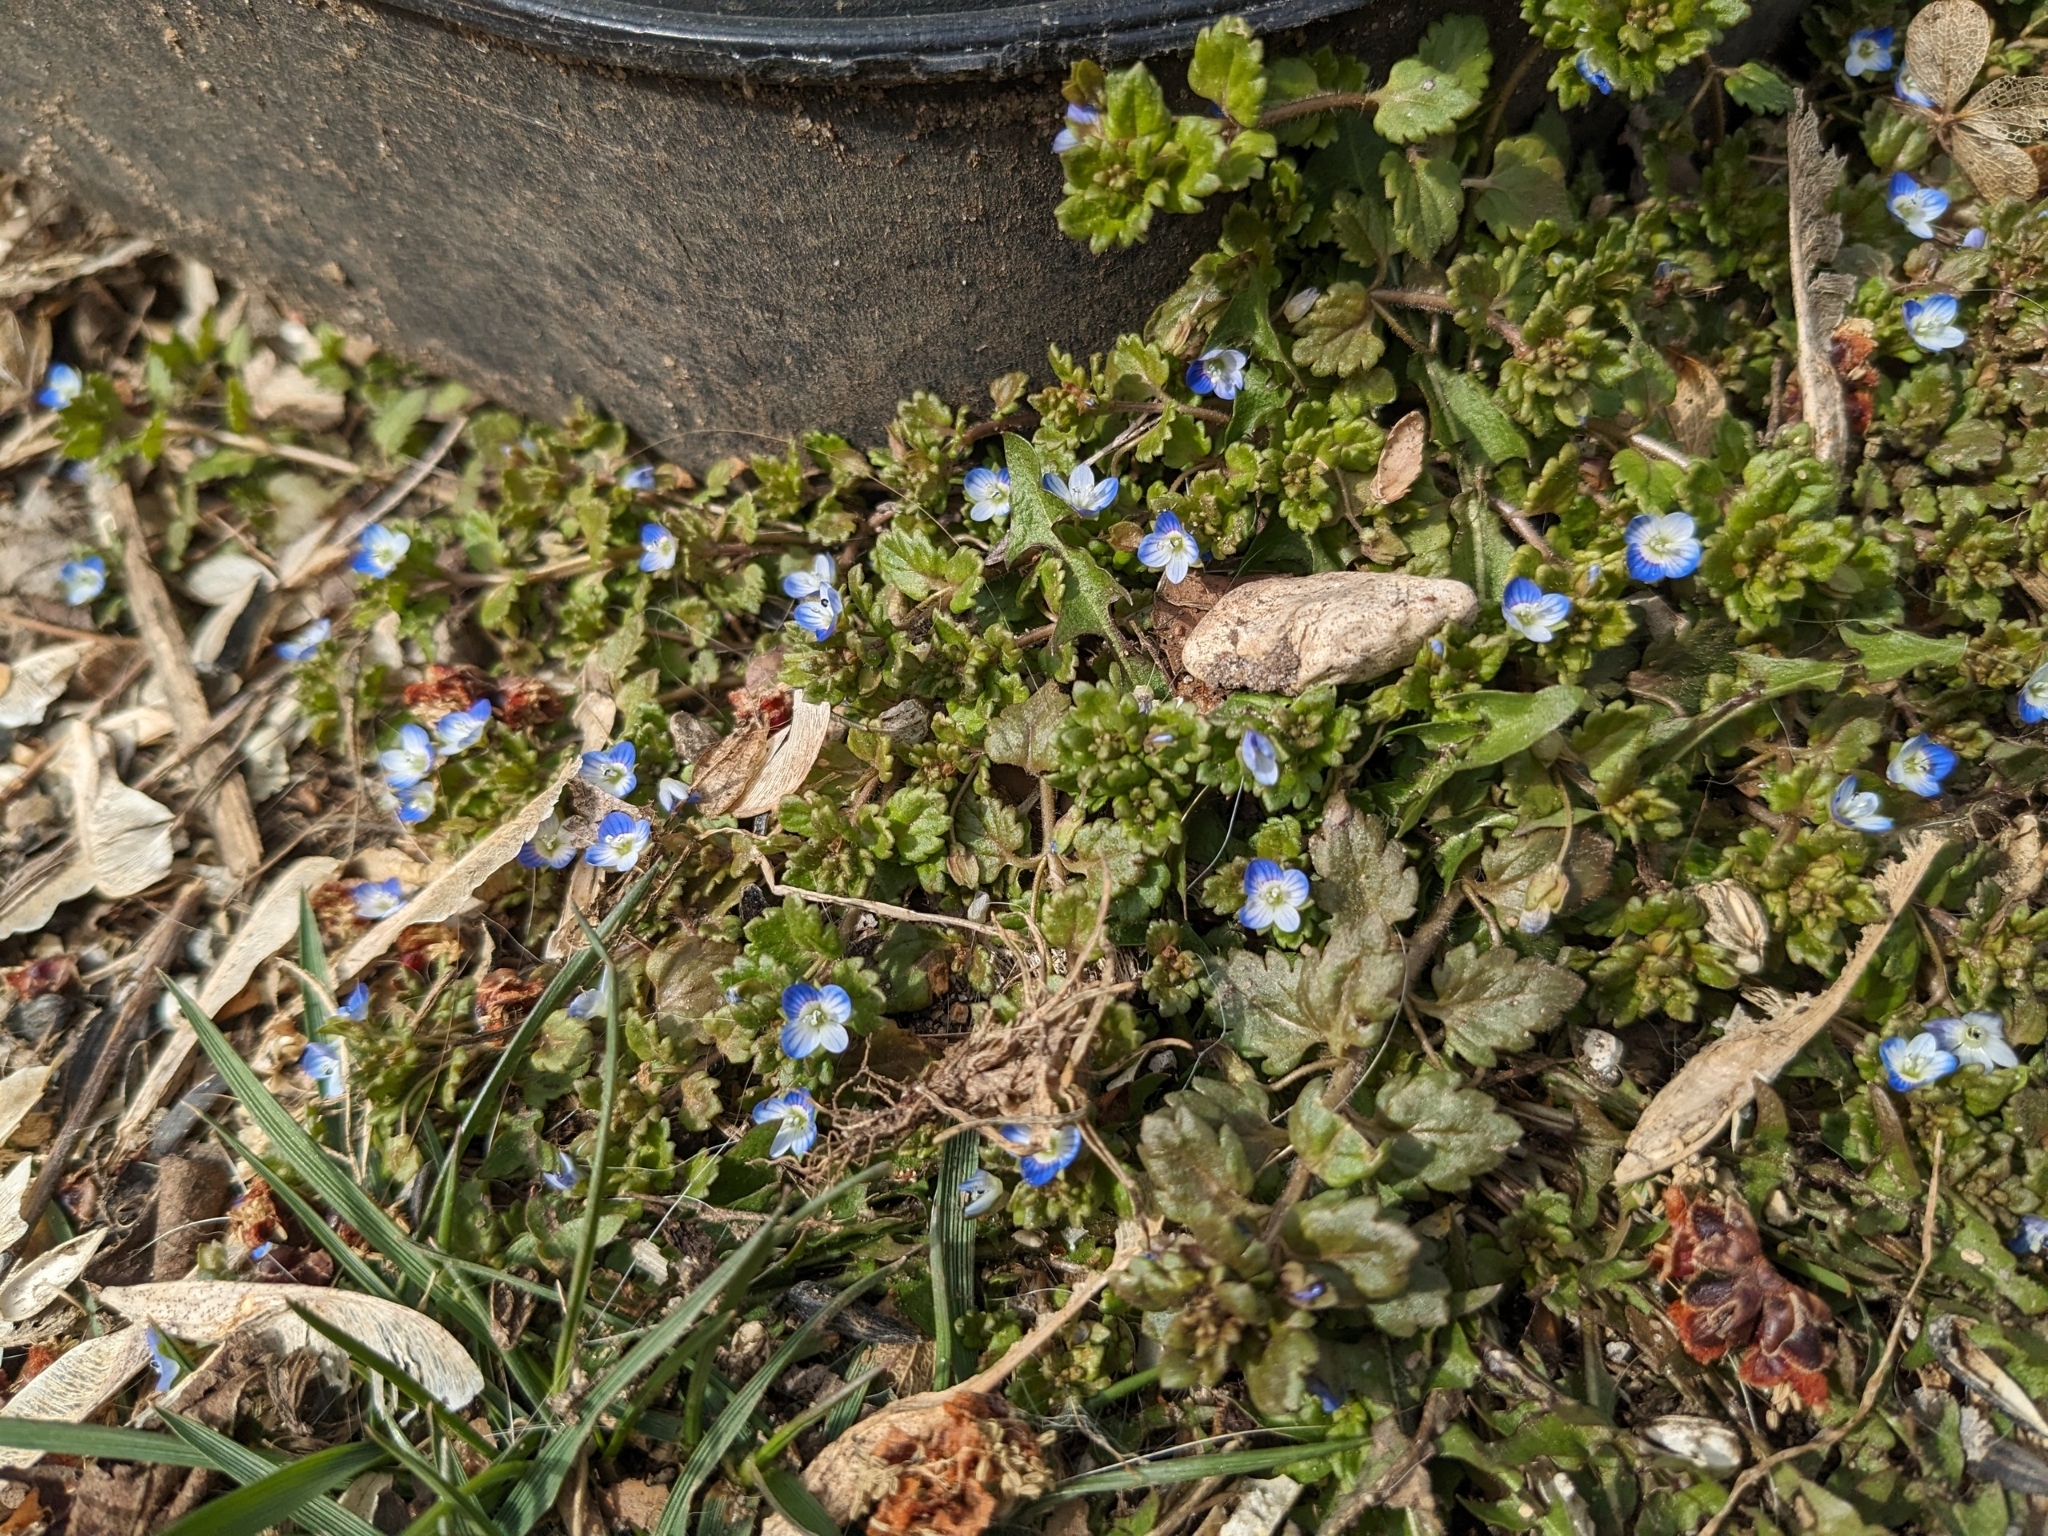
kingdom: Plantae
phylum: Tracheophyta
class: Magnoliopsida
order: Lamiales
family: Plantaginaceae
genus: Veronica
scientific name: Veronica polita
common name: Grey field-speedwell
